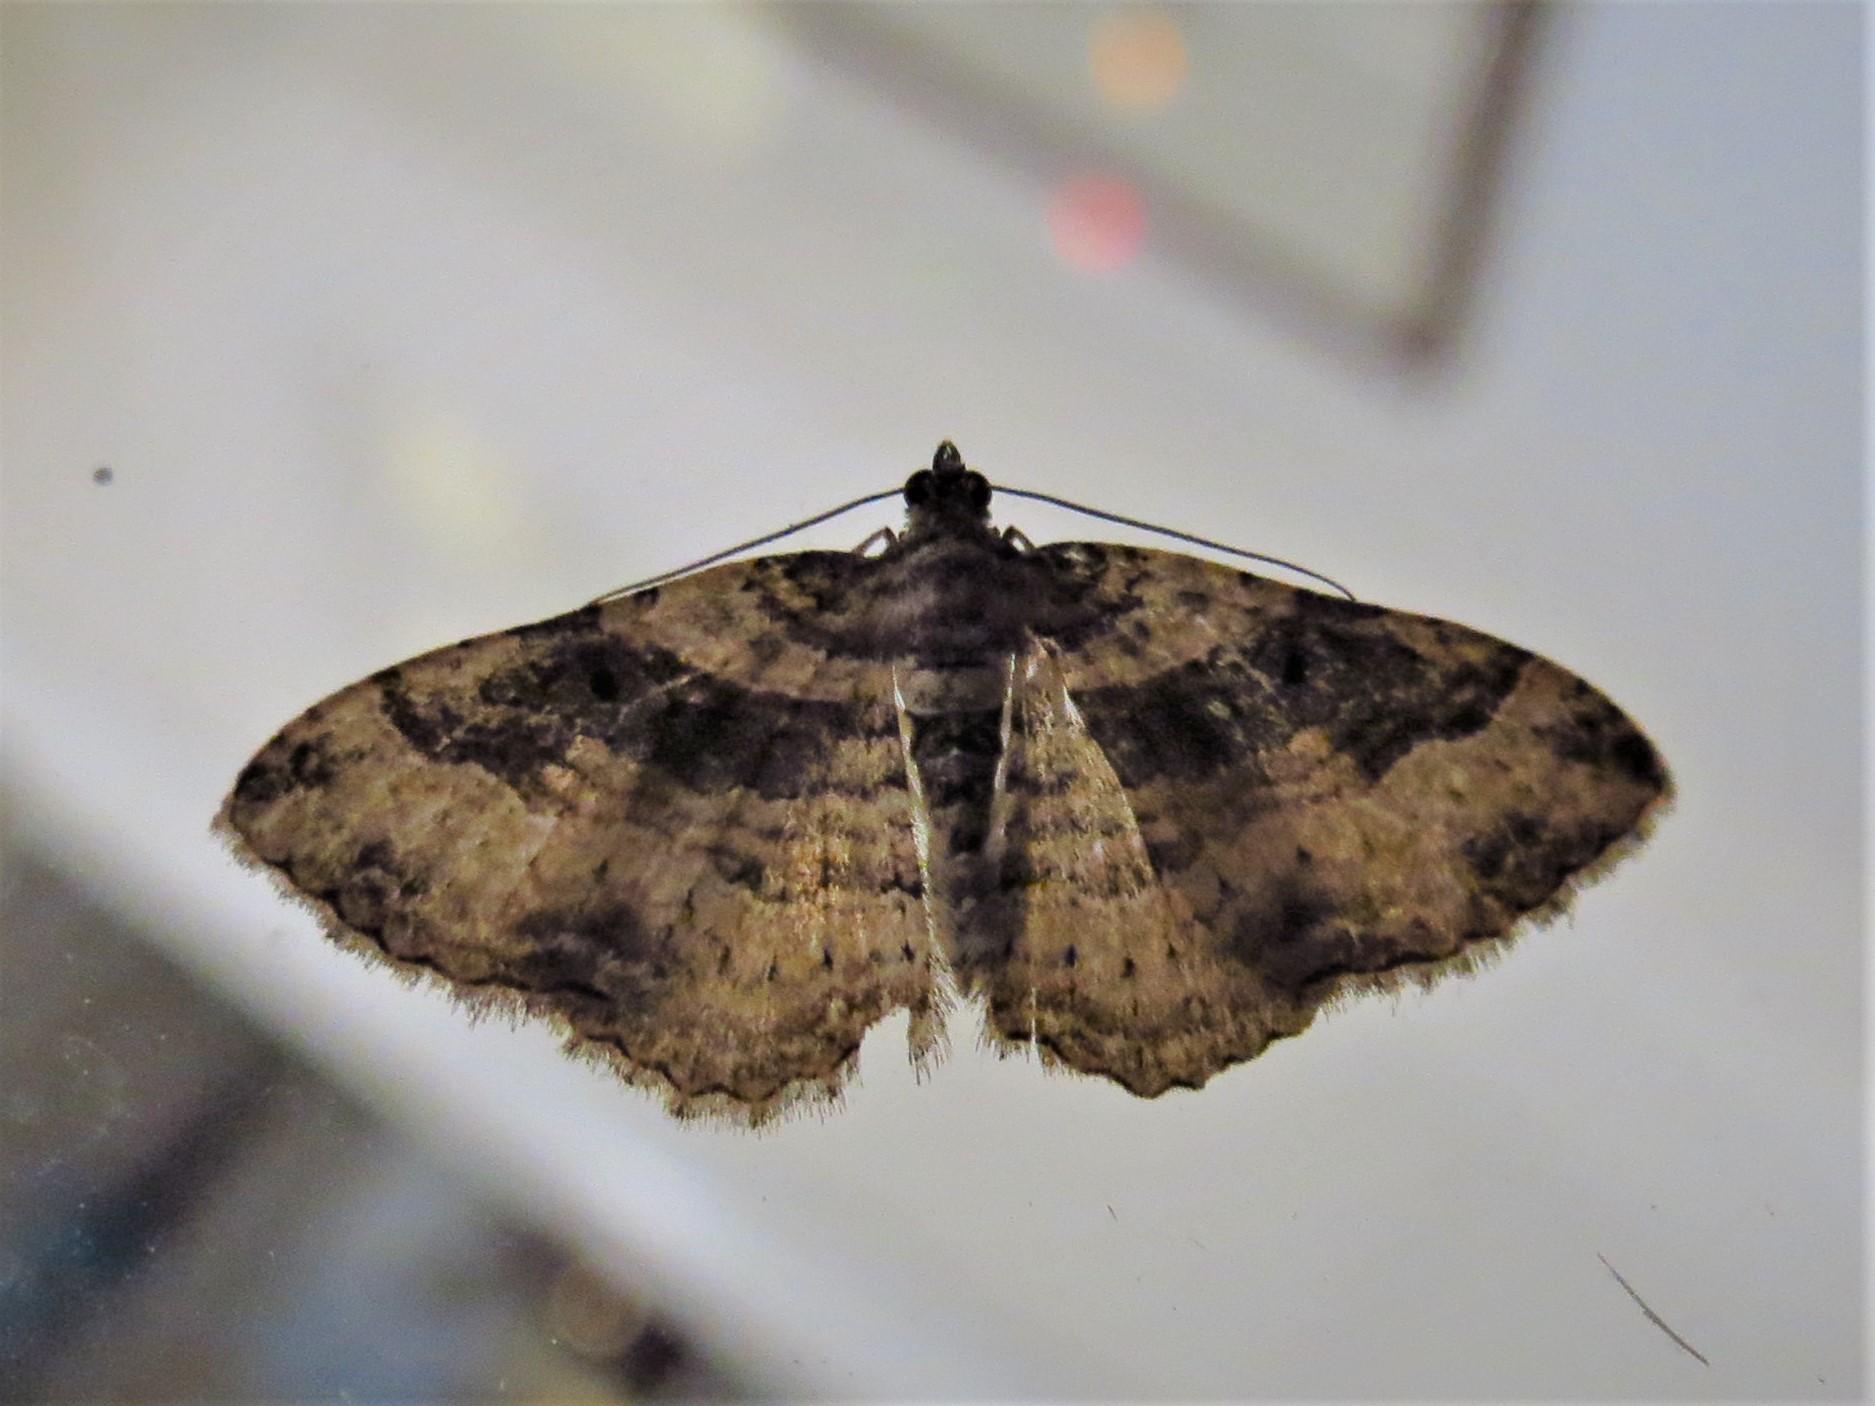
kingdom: Animalia
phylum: Arthropoda
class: Insecta
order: Lepidoptera
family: Geometridae
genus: Costaconvexa
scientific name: Costaconvexa centrostrigaria
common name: Bent-line carpet
